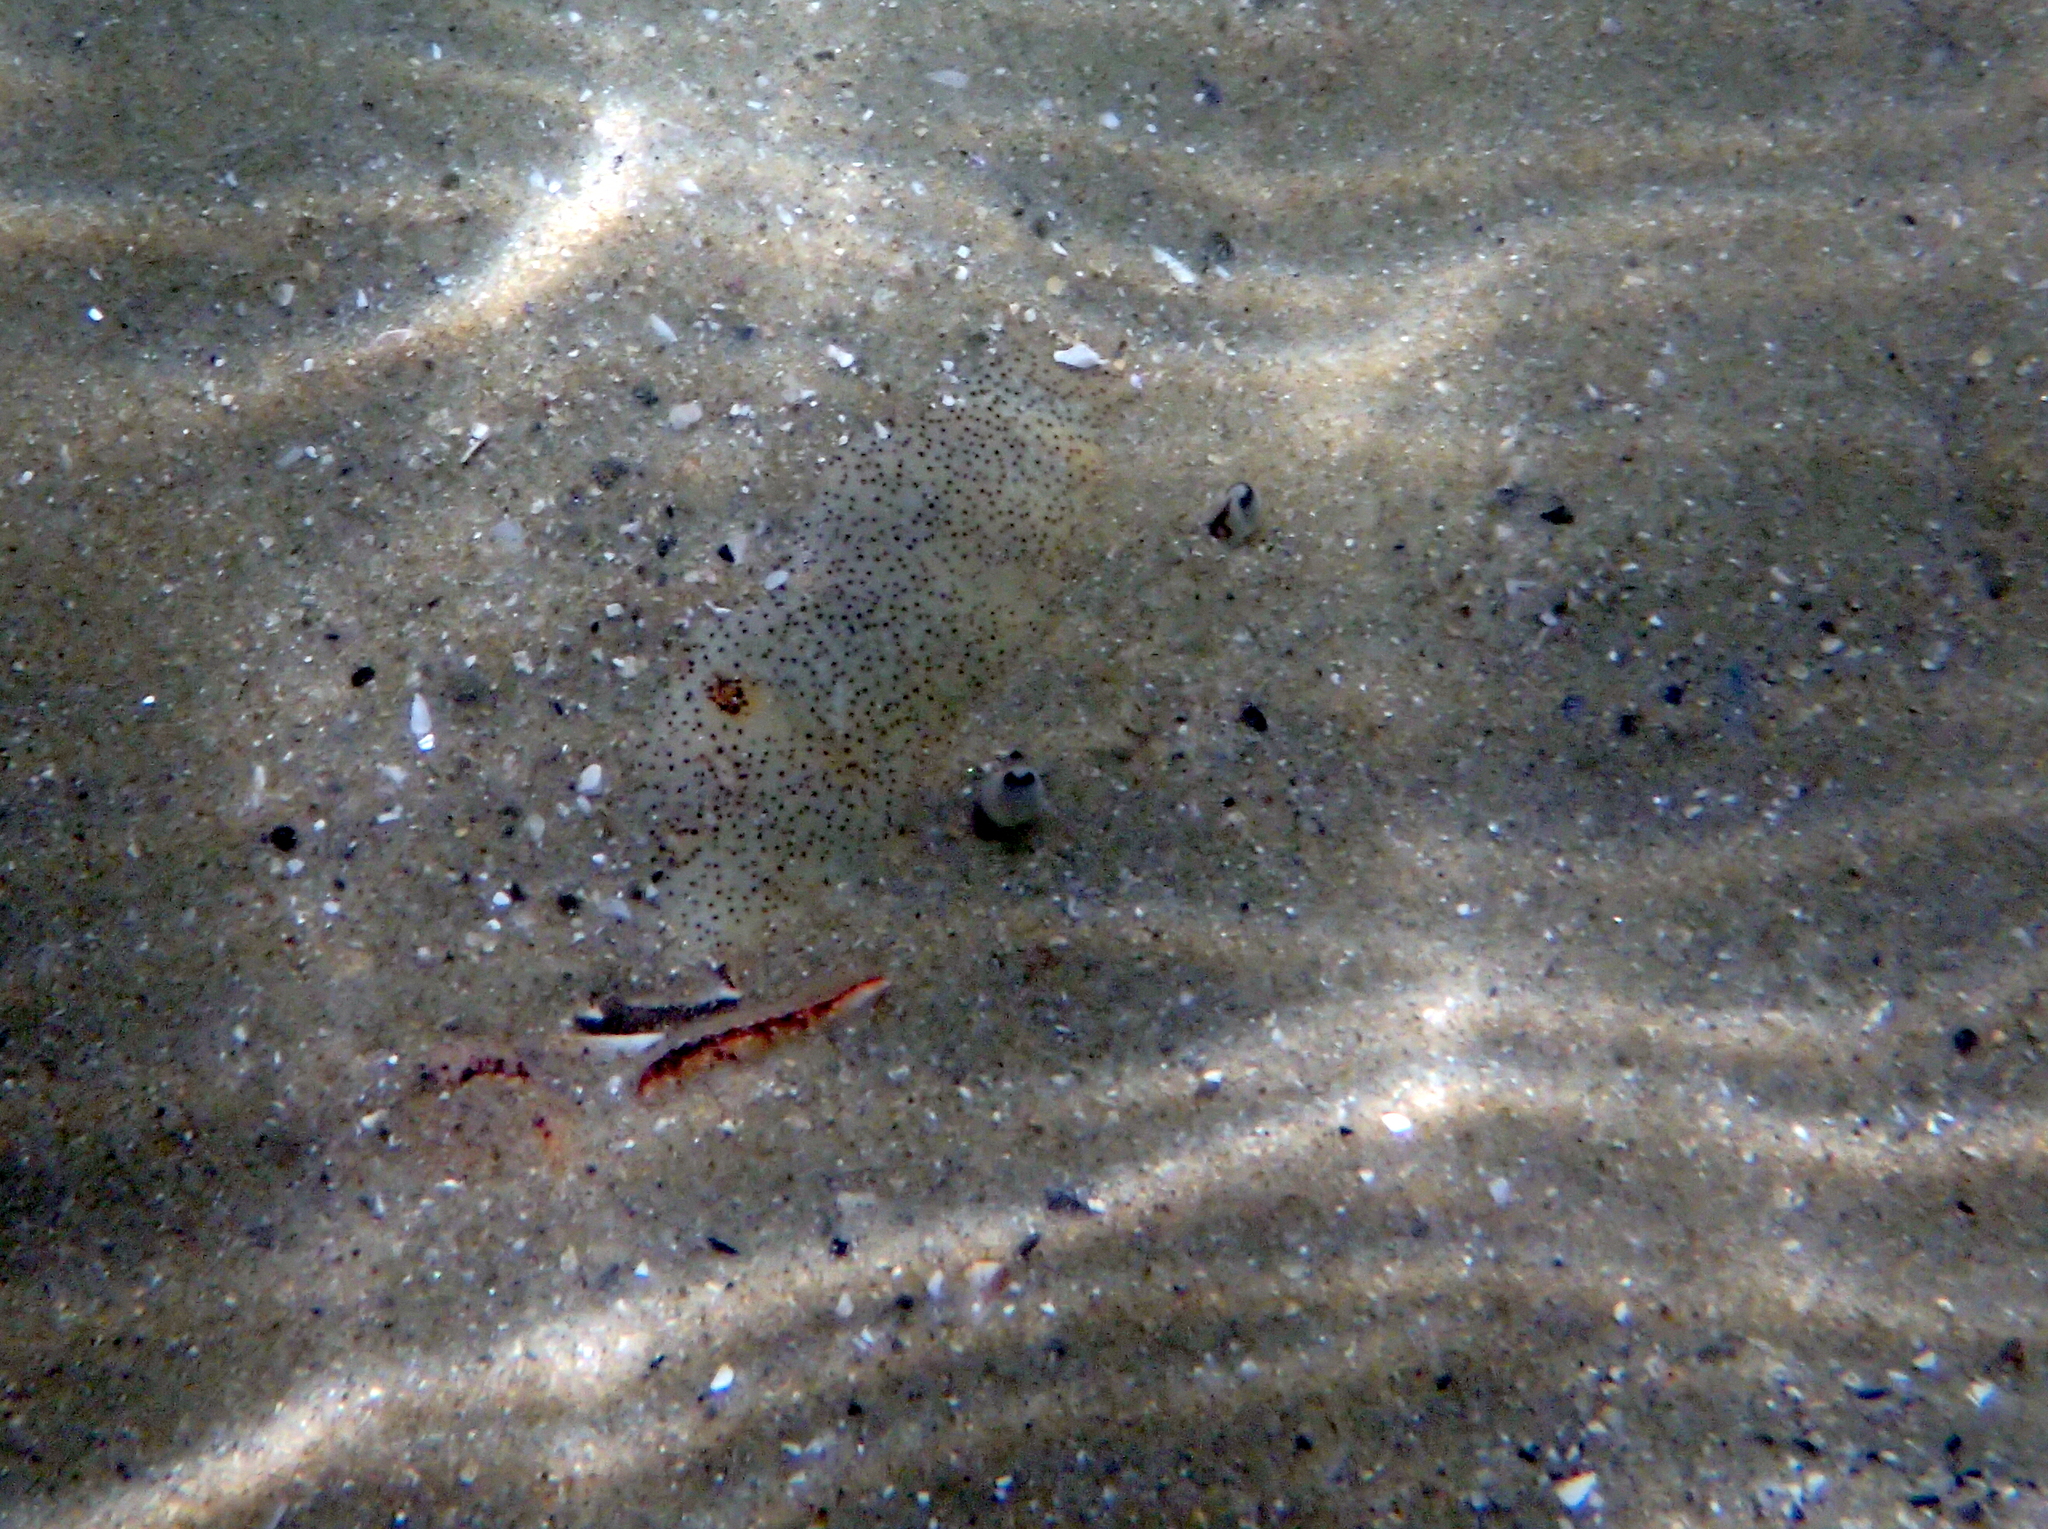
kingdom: Animalia
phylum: Arthropoda
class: Malacostraca
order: Decapoda
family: Ovalipidae
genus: Ovalipes
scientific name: Ovalipes catharus
